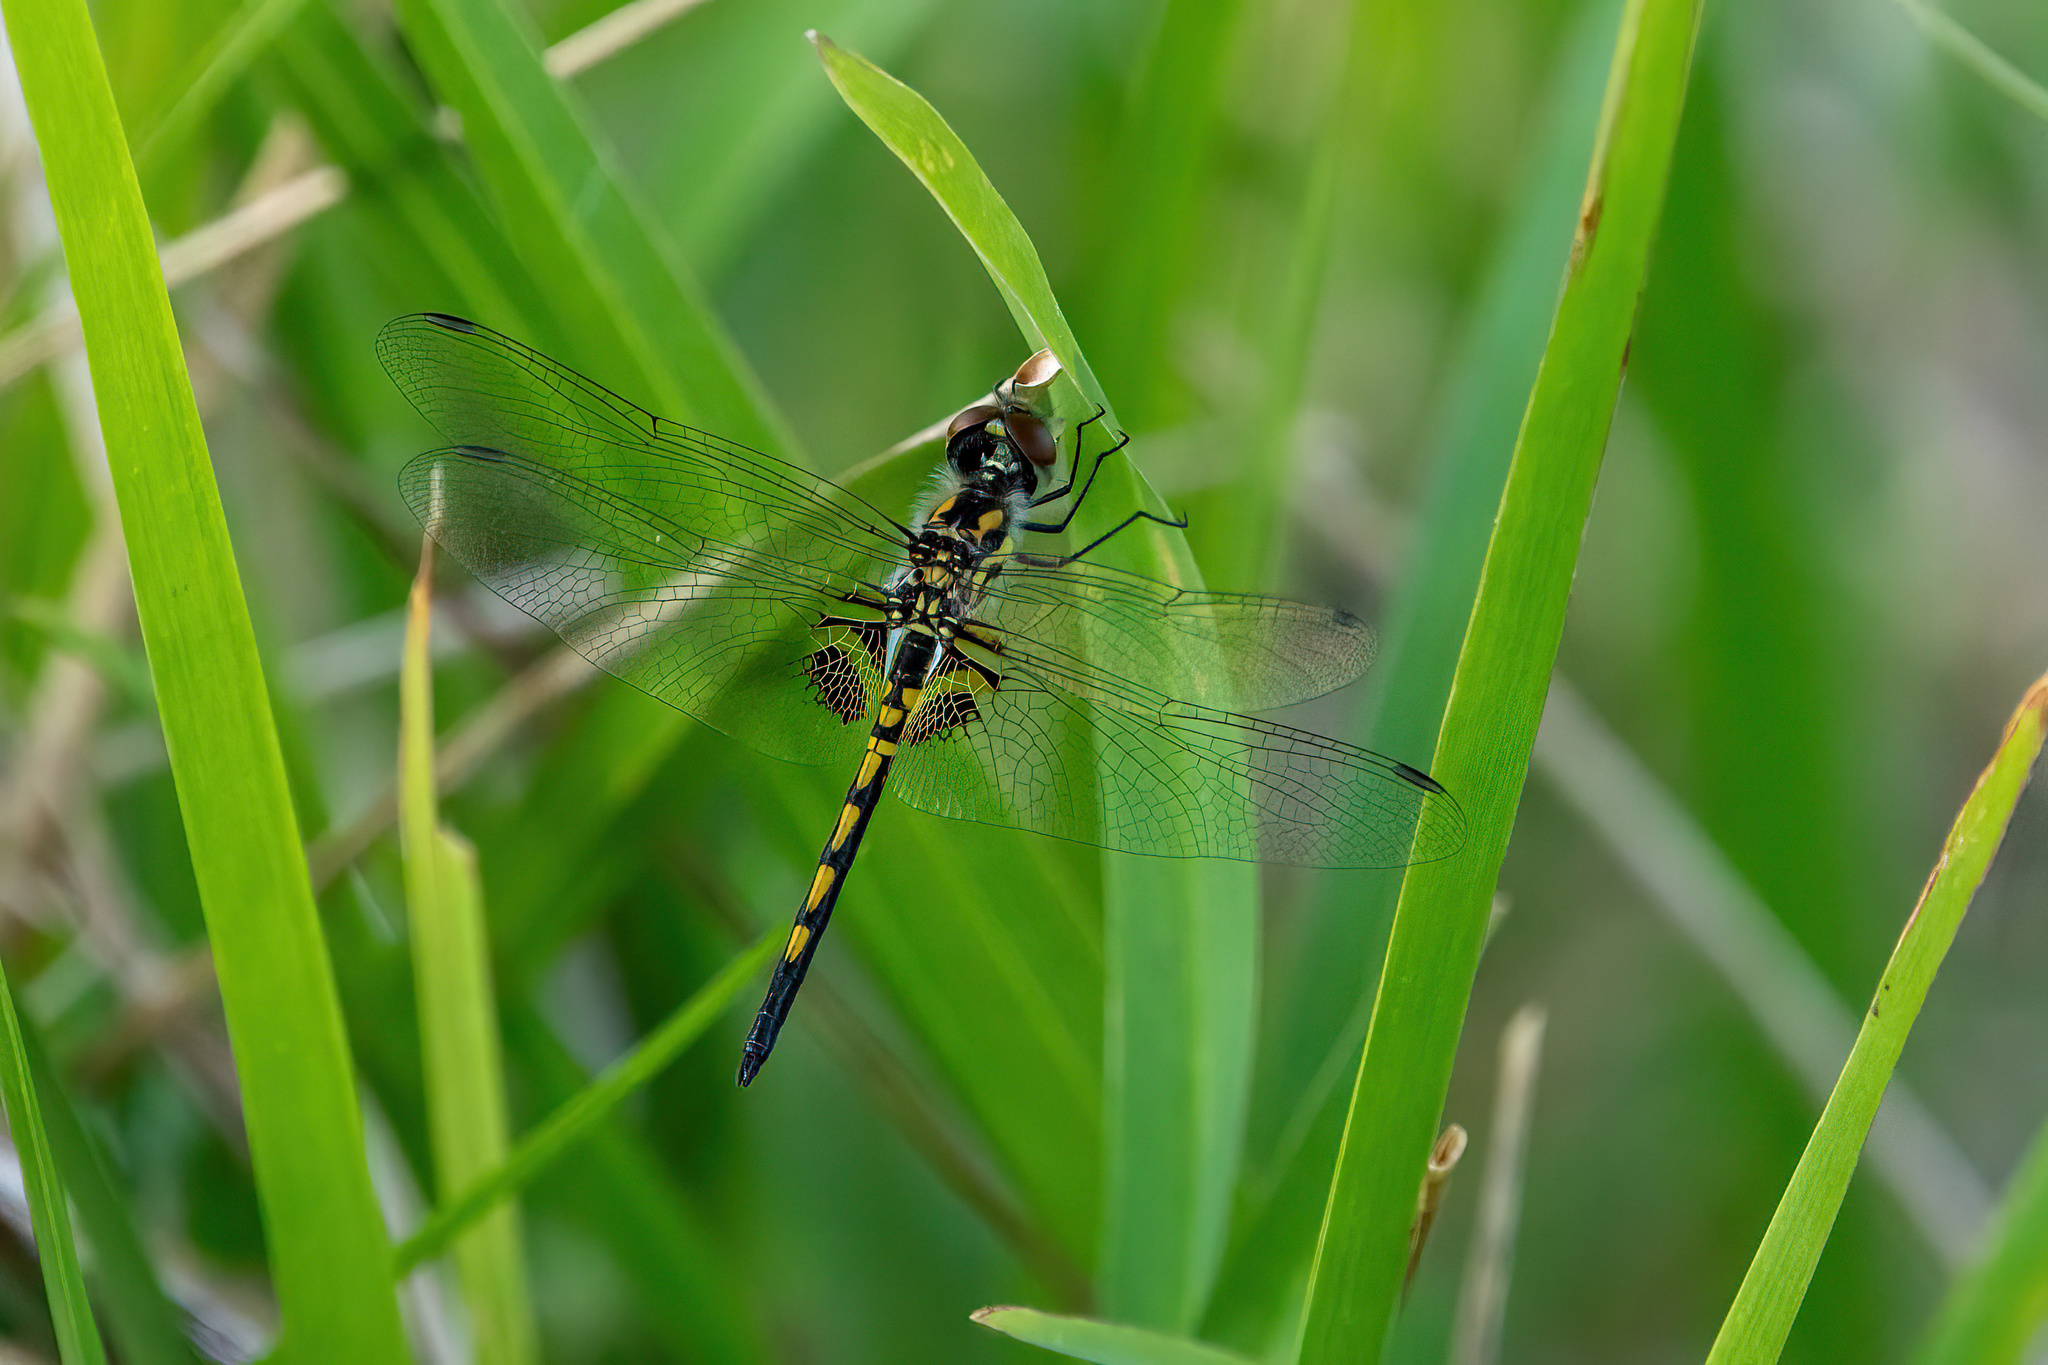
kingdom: Animalia
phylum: Arthropoda
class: Insecta
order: Odonata
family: Libellulidae
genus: Celithemis
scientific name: Celithemis ornata
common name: Ornate pennant
